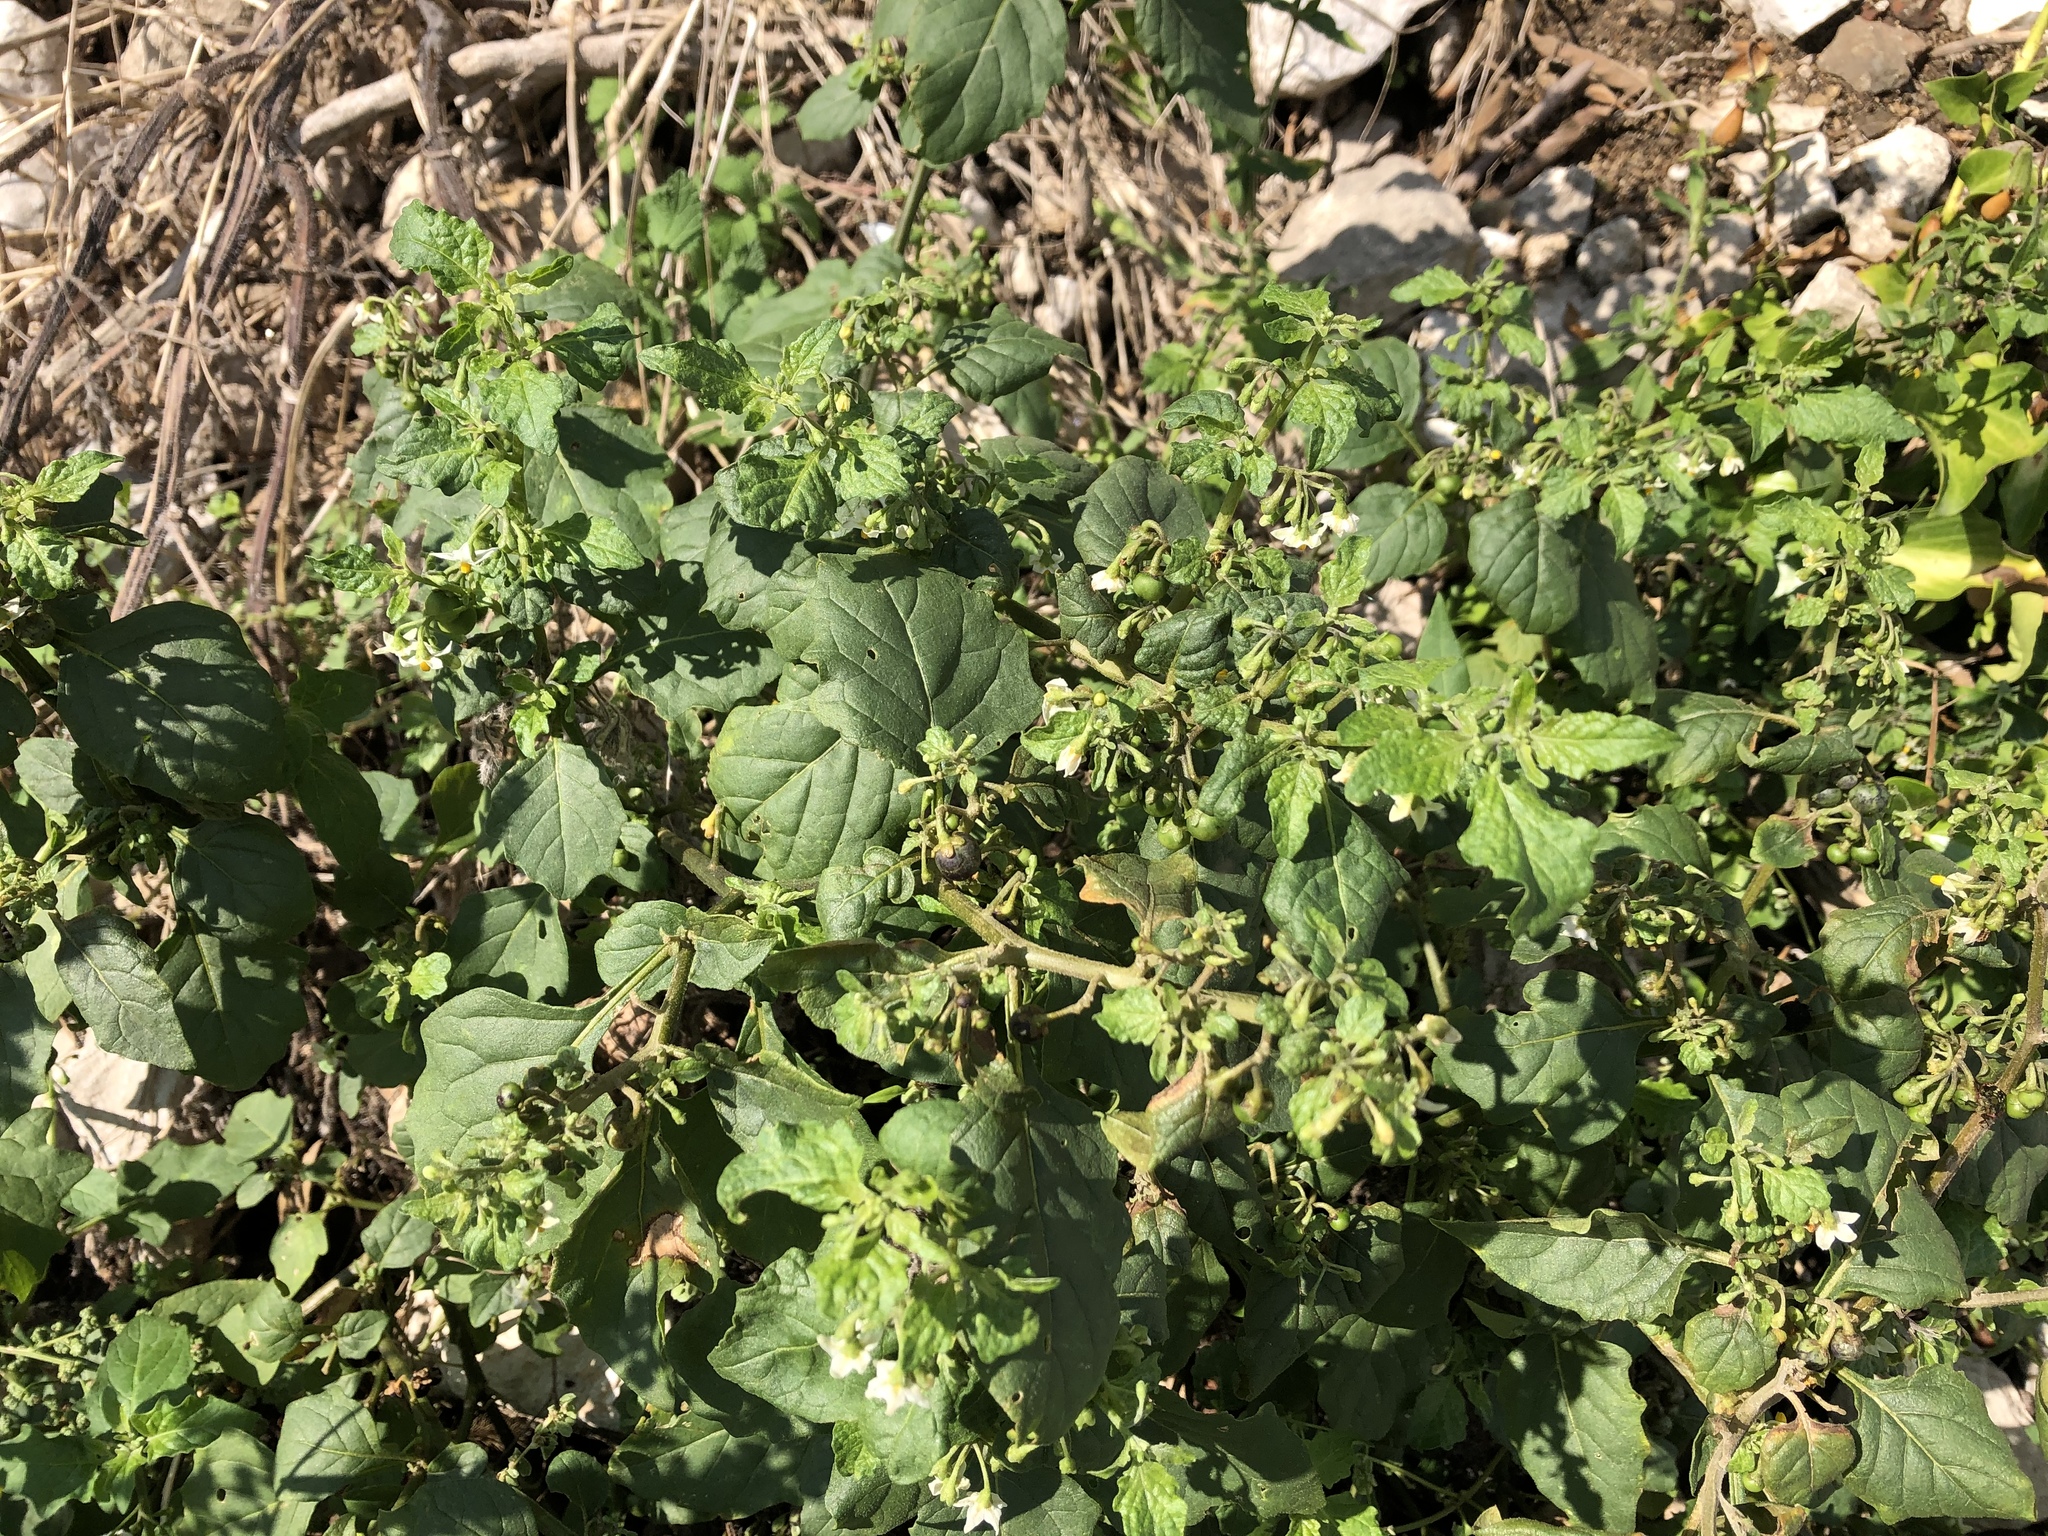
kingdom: Plantae
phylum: Tracheophyta
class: Magnoliopsida
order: Solanales
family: Solanaceae
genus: Solanum
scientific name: Solanum nigrum
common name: Black nightshade
